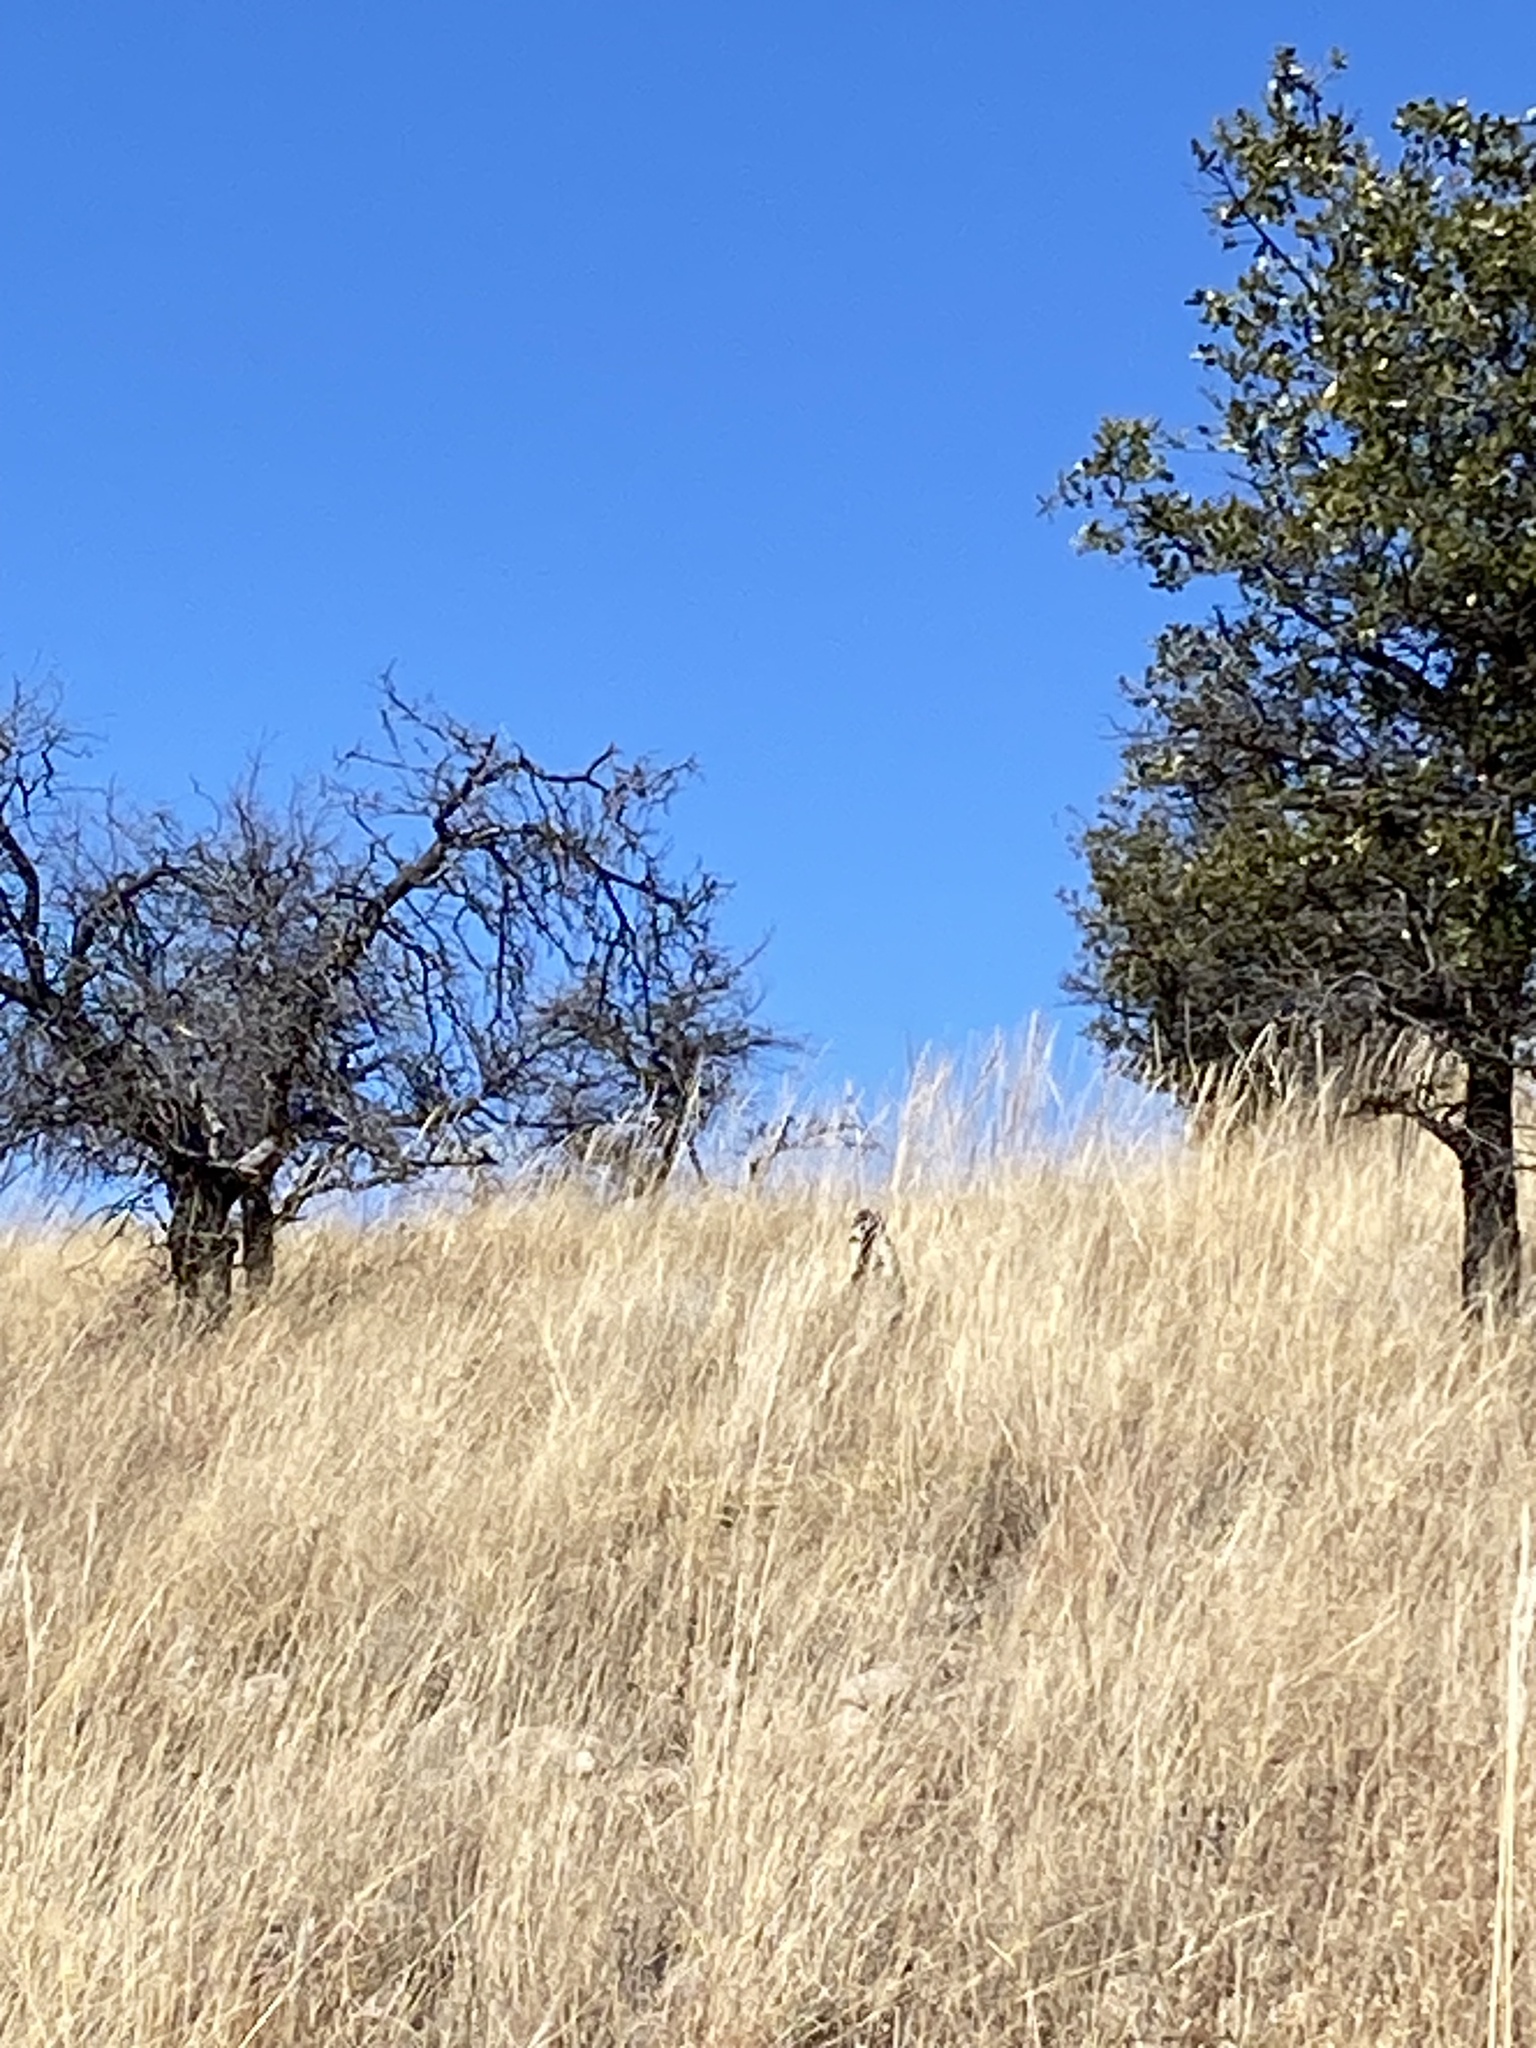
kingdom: Animalia
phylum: Chordata
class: Mammalia
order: Carnivora
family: Procyonidae
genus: Nasua
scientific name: Nasua narica
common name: White-nosed coati
